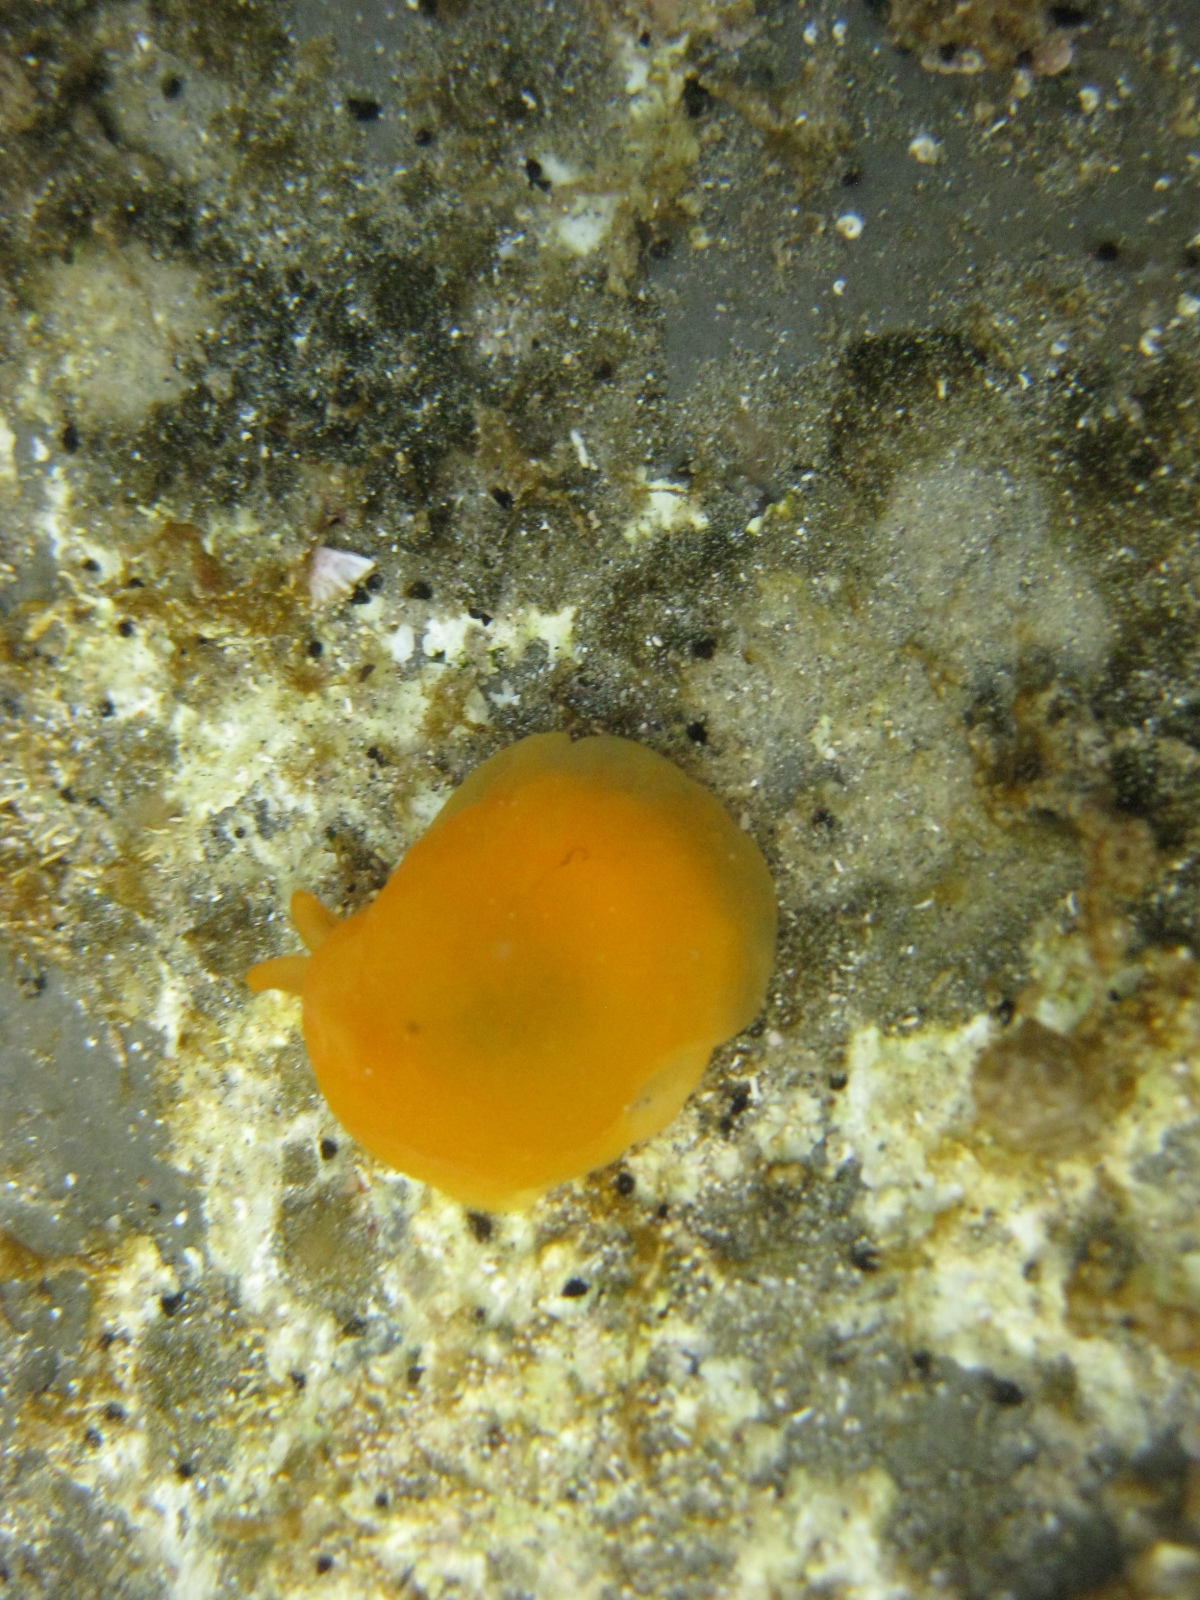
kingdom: Animalia
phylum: Mollusca
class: Gastropoda
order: Pleurobranchida
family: Pleurobranchidae
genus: Berthellina
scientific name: Berthellina citrina
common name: Lemon pleurobranch
